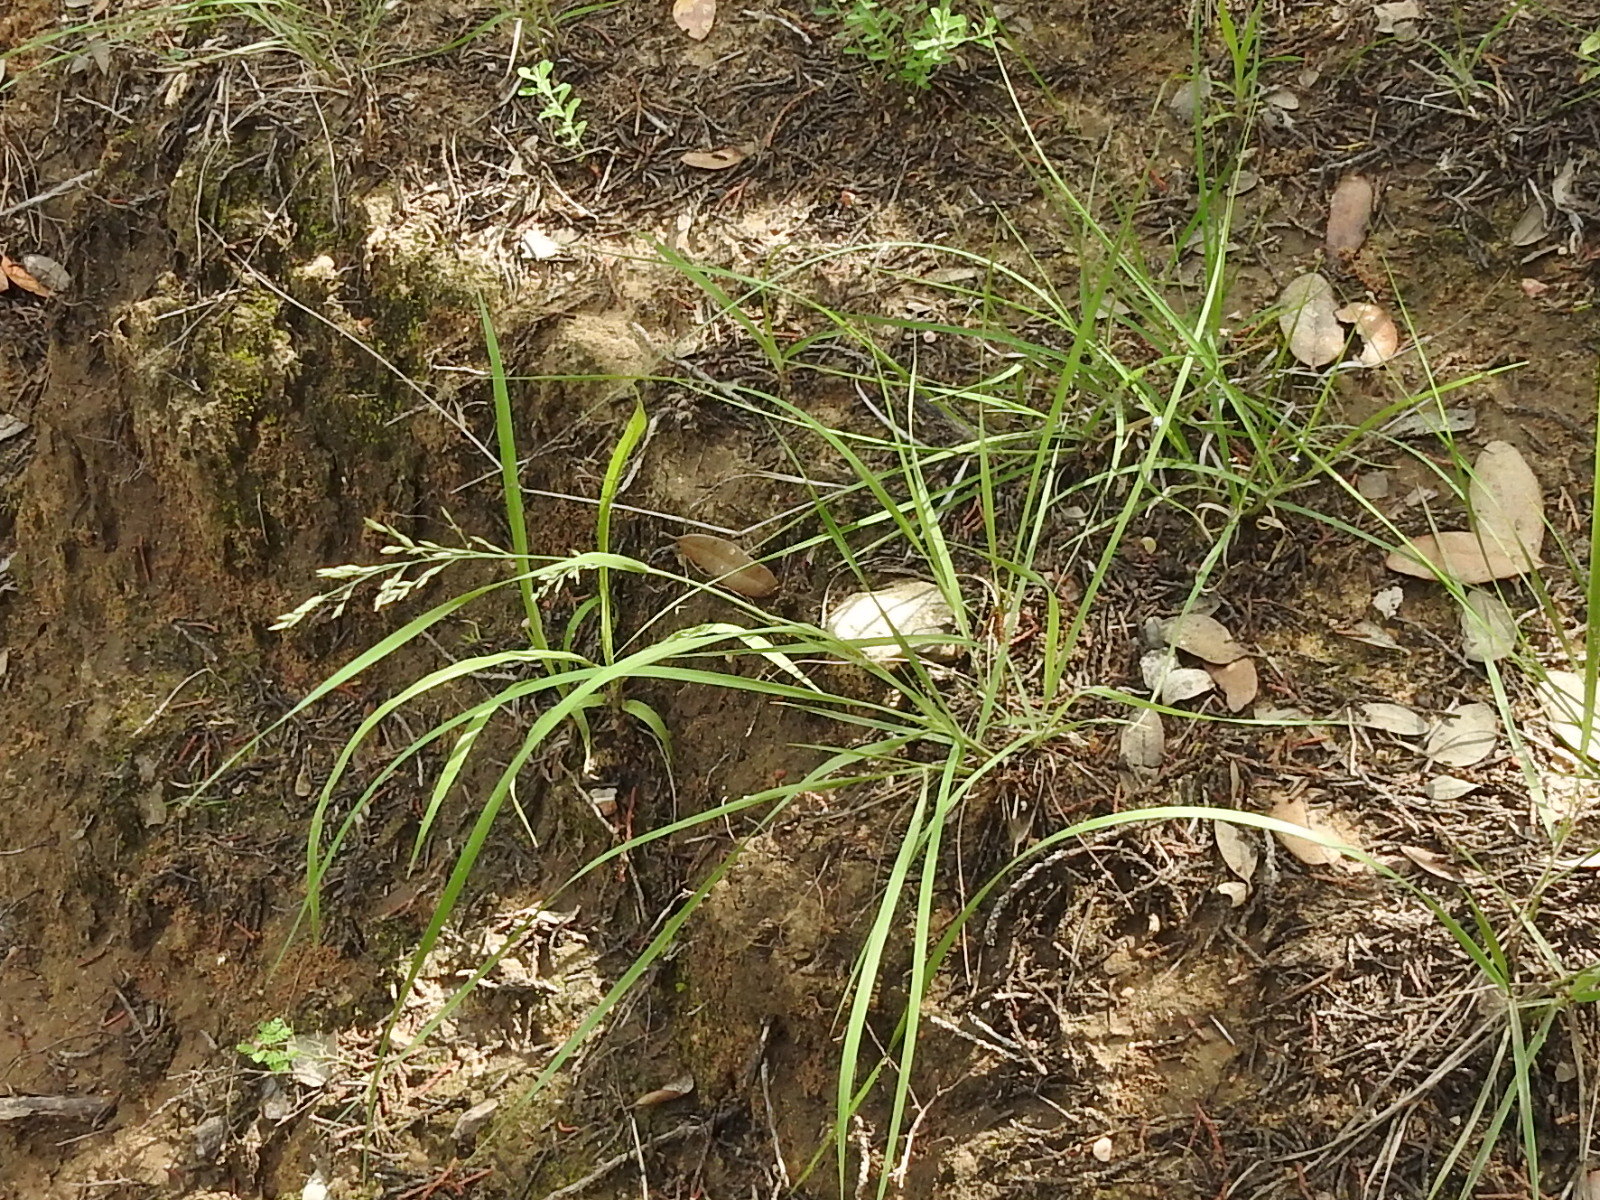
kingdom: Plantae
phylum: Tracheophyta
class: Liliopsida
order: Poales
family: Poaceae
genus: Eragrostis
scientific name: Eragrostis pectinacea
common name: Tufted lovegrass
